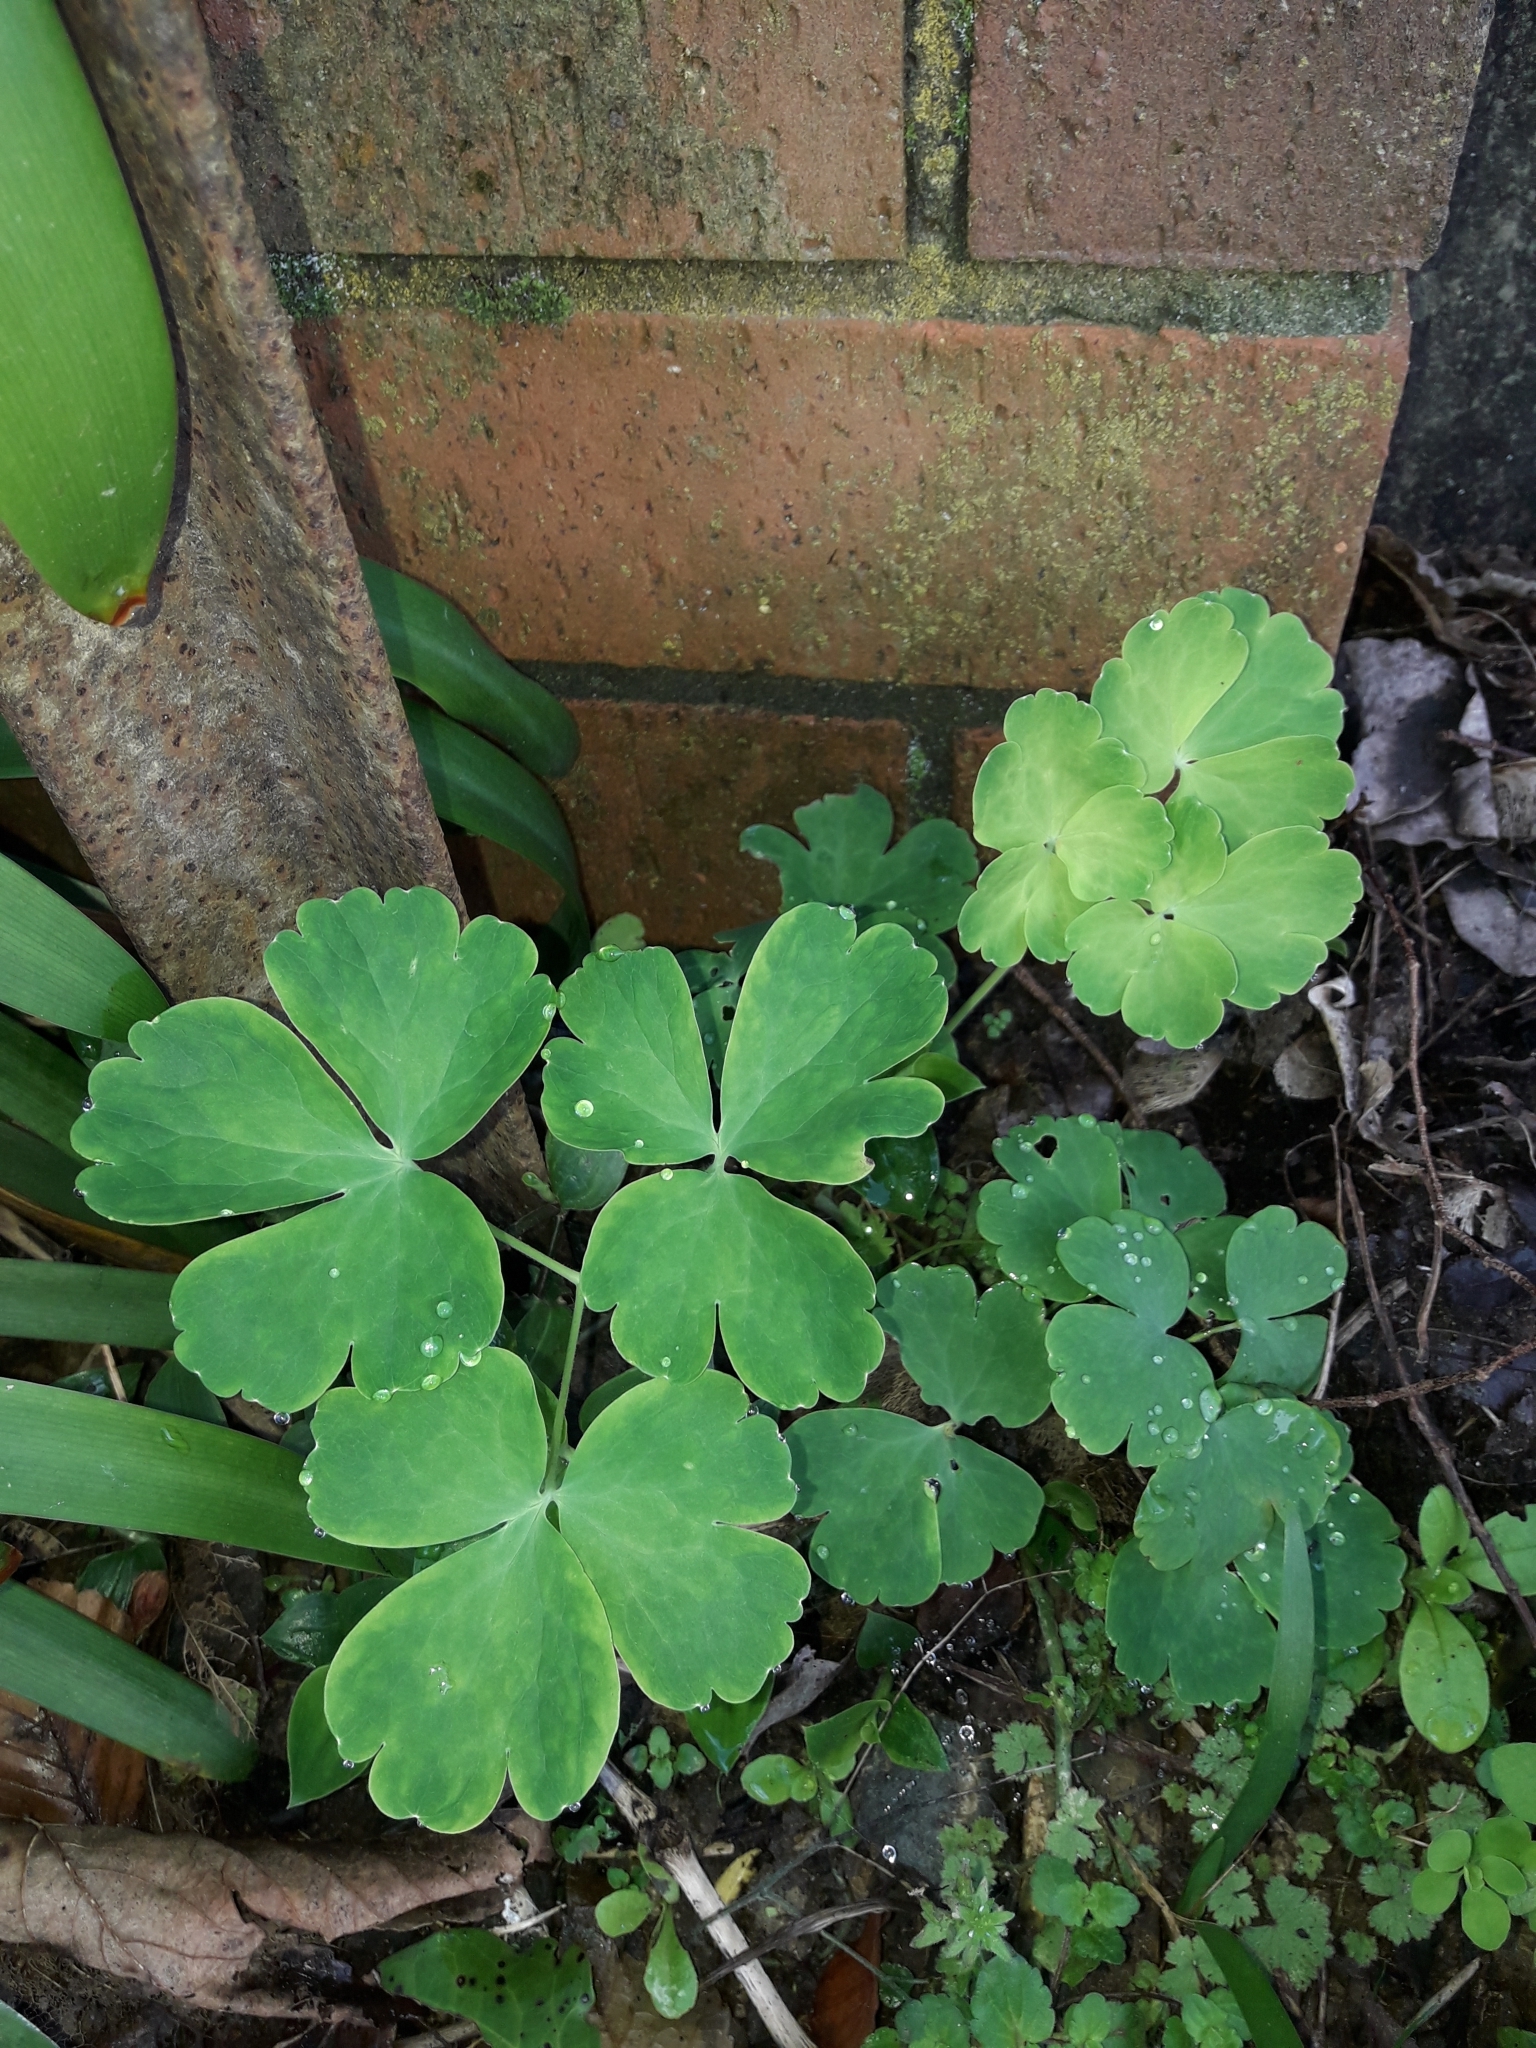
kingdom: Plantae
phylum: Tracheophyta
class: Magnoliopsida
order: Ranunculales
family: Ranunculaceae
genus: Aquilegia
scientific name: Aquilegia vulgaris
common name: Columbine
